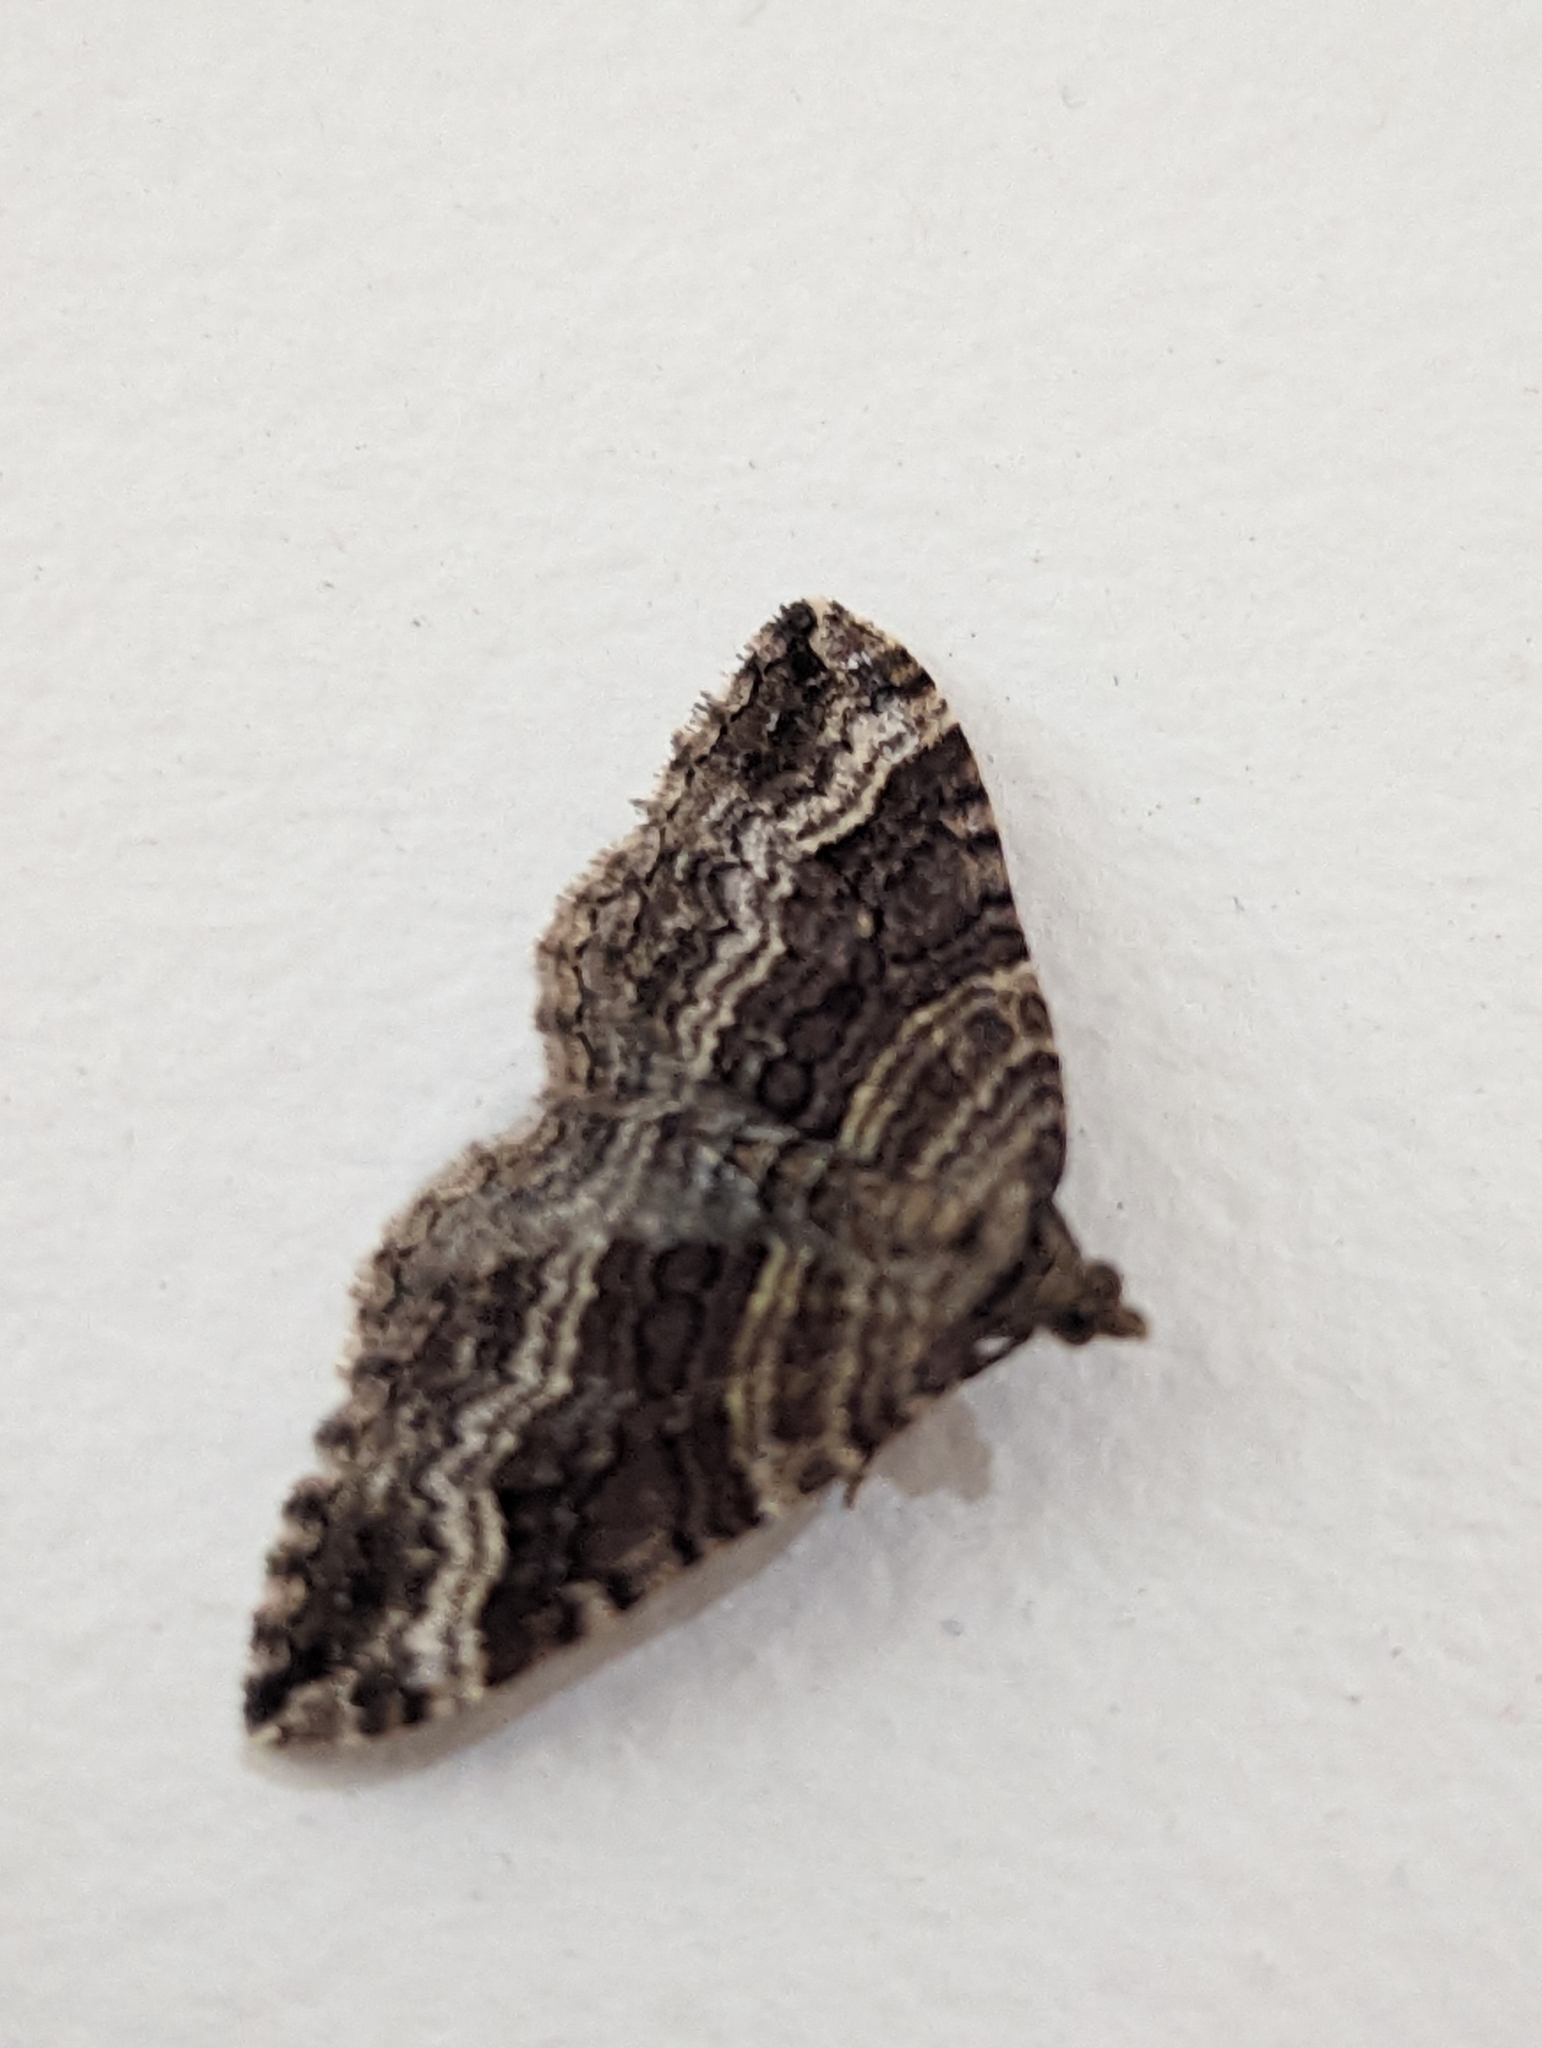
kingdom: Animalia
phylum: Arthropoda
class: Insecta
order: Lepidoptera
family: Geometridae
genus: Chrysolarentia
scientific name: Chrysolarentia subrectaria
